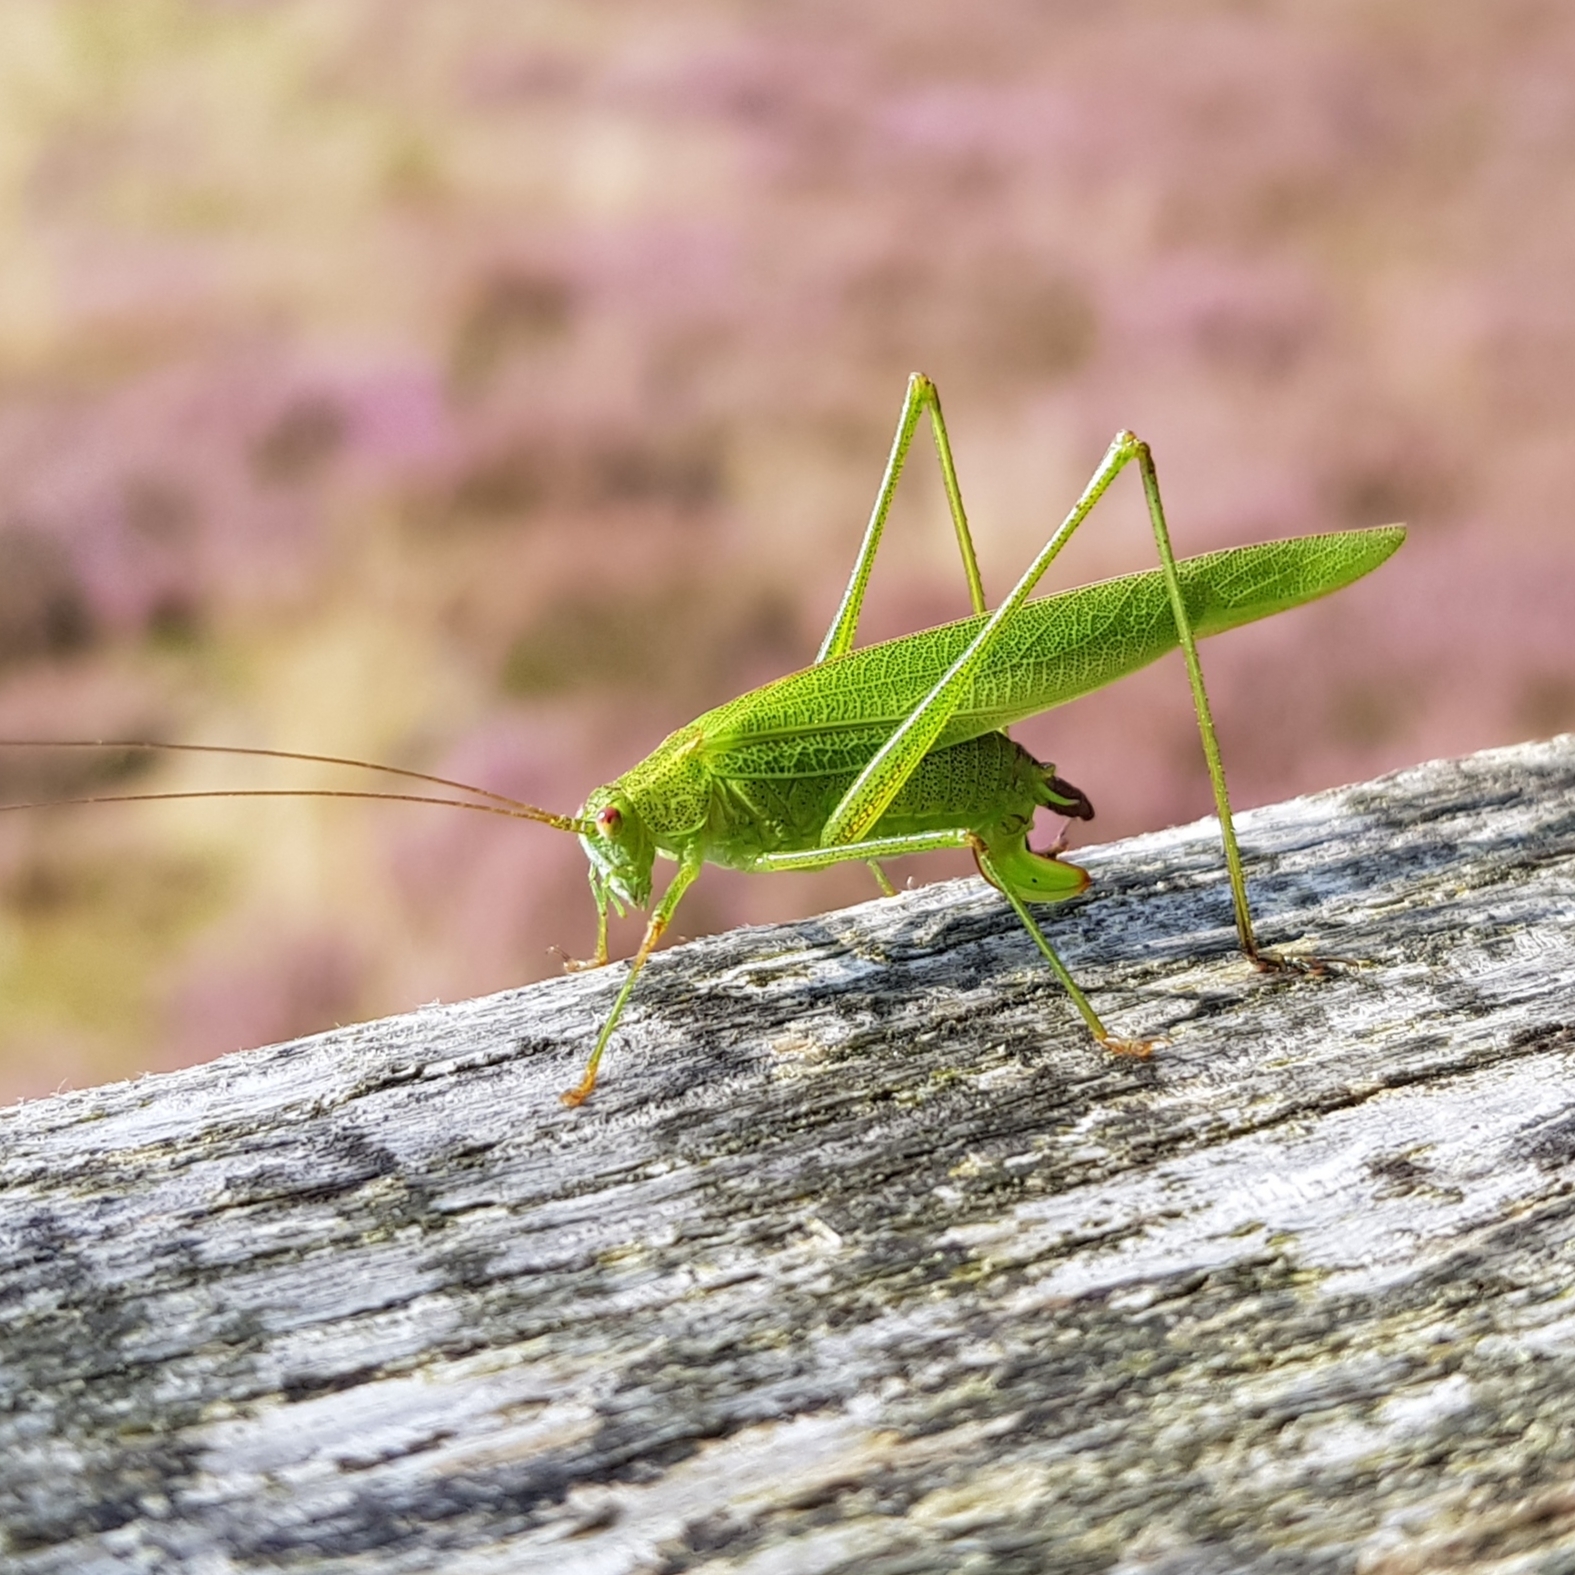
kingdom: Animalia
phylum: Arthropoda
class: Insecta
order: Orthoptera
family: Tettigoniidae
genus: Phaneroptera
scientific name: Phaneroptera falcata
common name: Sickle-bearing bush-cricket
